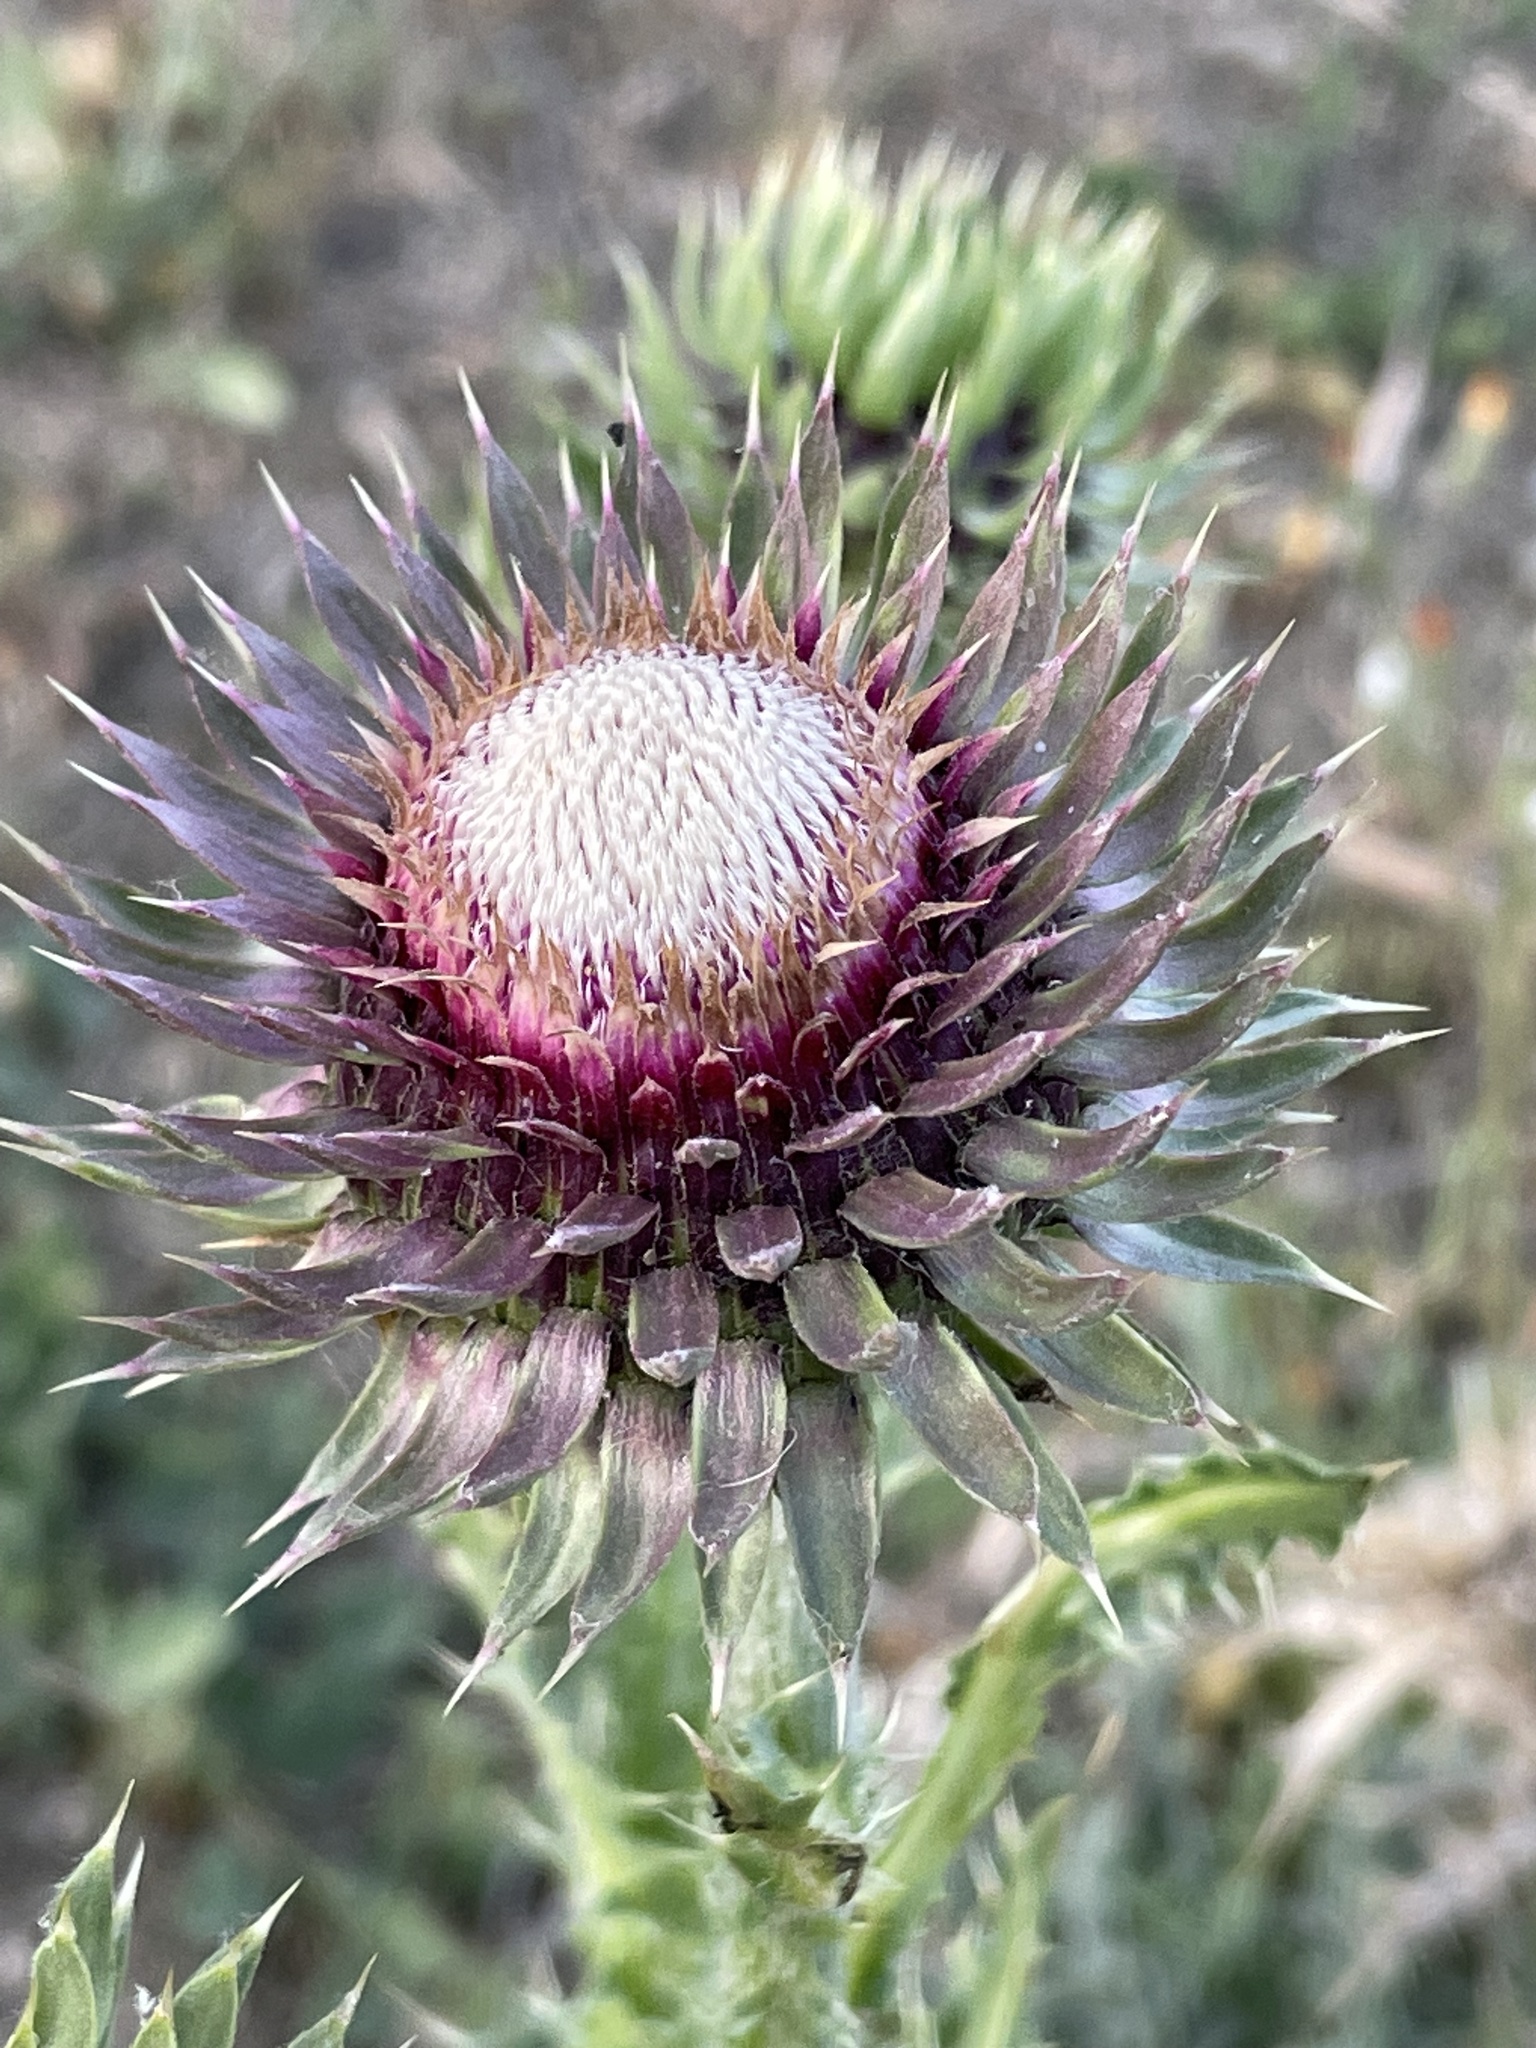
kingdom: Plantae
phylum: Tracheophyta
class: Magnoliopsida
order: Asterales
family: Asteraceae
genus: Carduus
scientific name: Carduus macrocephalus
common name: Giant thistle
